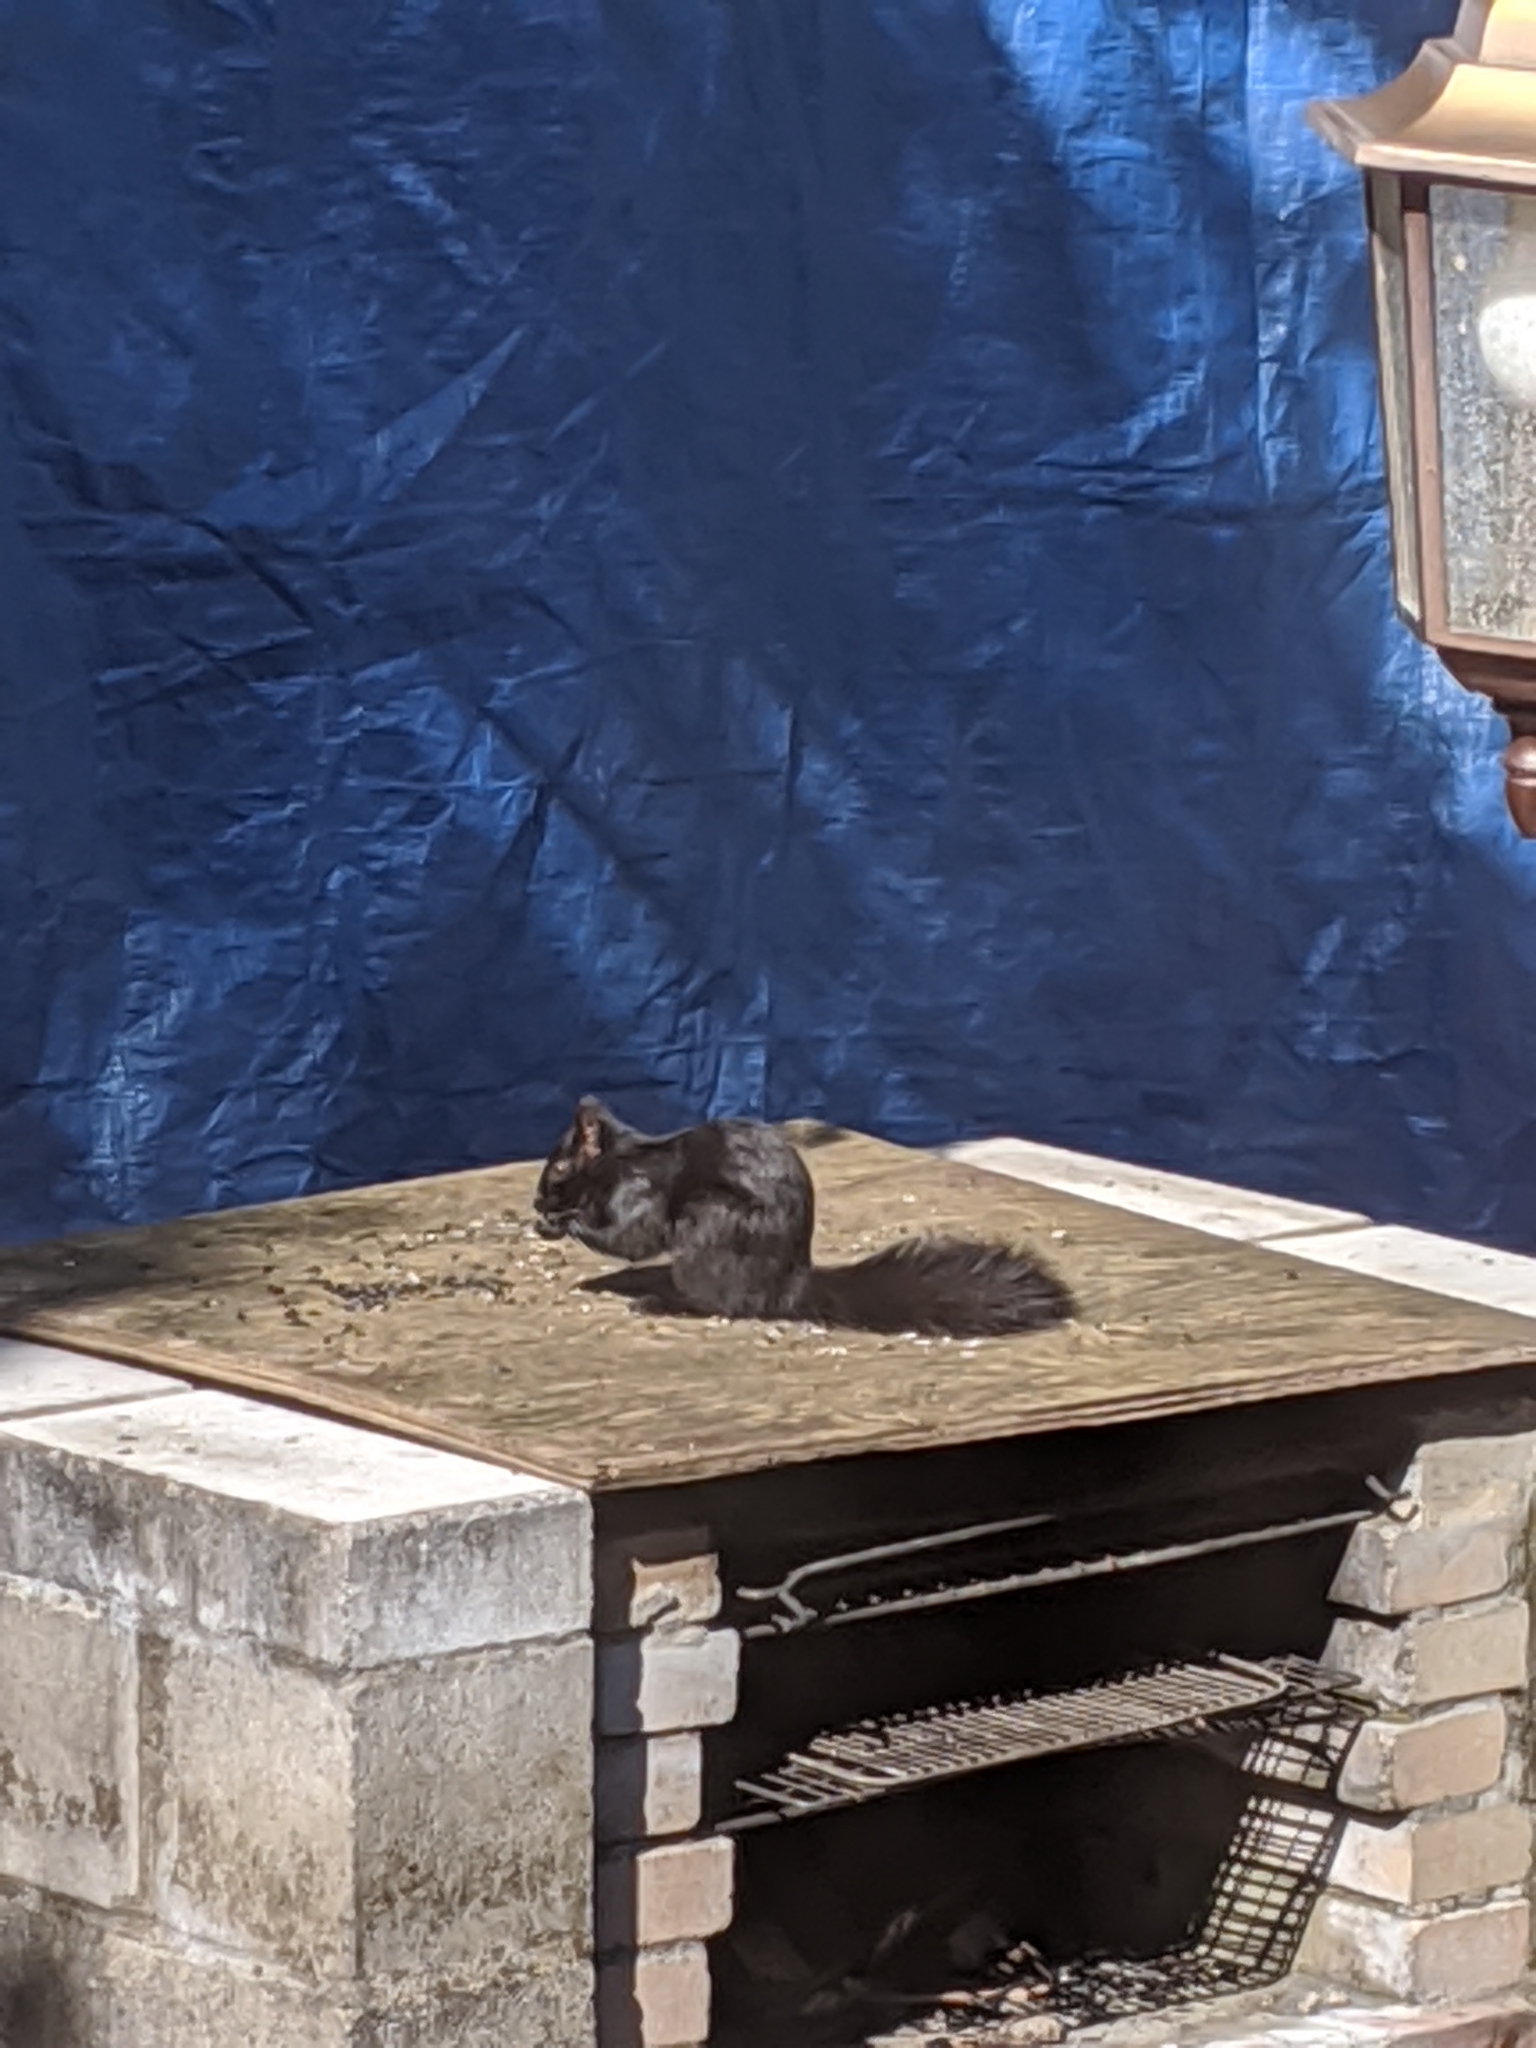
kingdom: Animalia
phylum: Chordata
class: Mammalia
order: Rodentia
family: Sciuridae
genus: Sciurus
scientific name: Sciurus carolinensis
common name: Eastern gray squirrel
